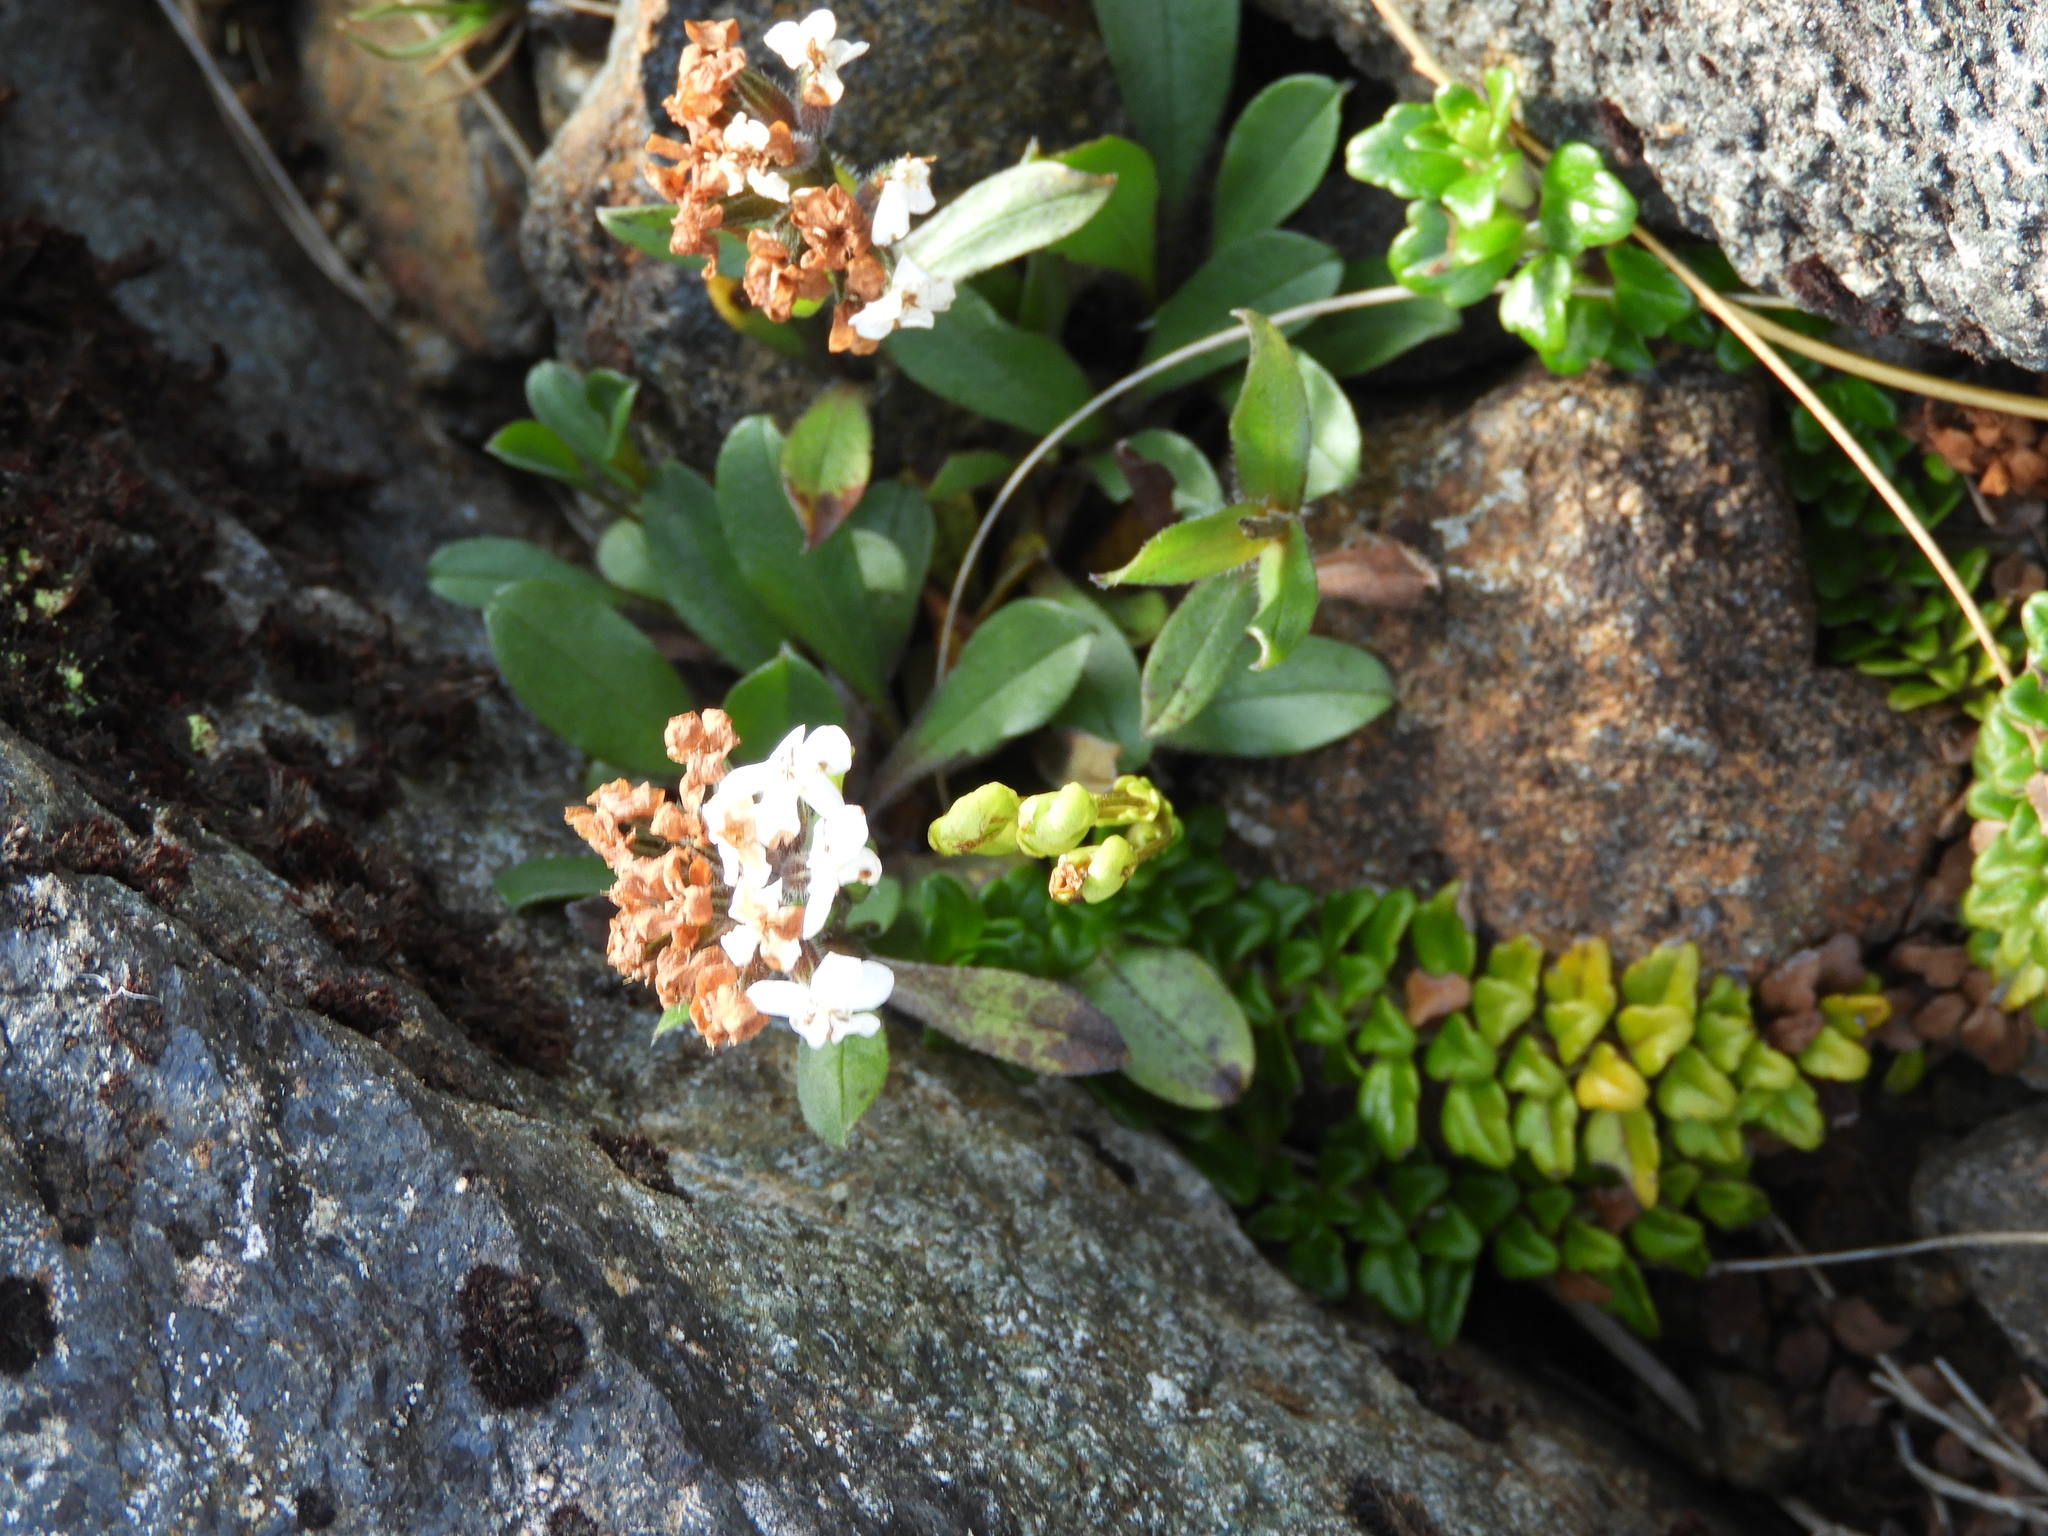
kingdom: Plantae
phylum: Tracheophyta
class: Magnoliopsida
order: Lamiales
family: Plantaginaceae
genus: Ourisia
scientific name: Ourisia caespitosa
